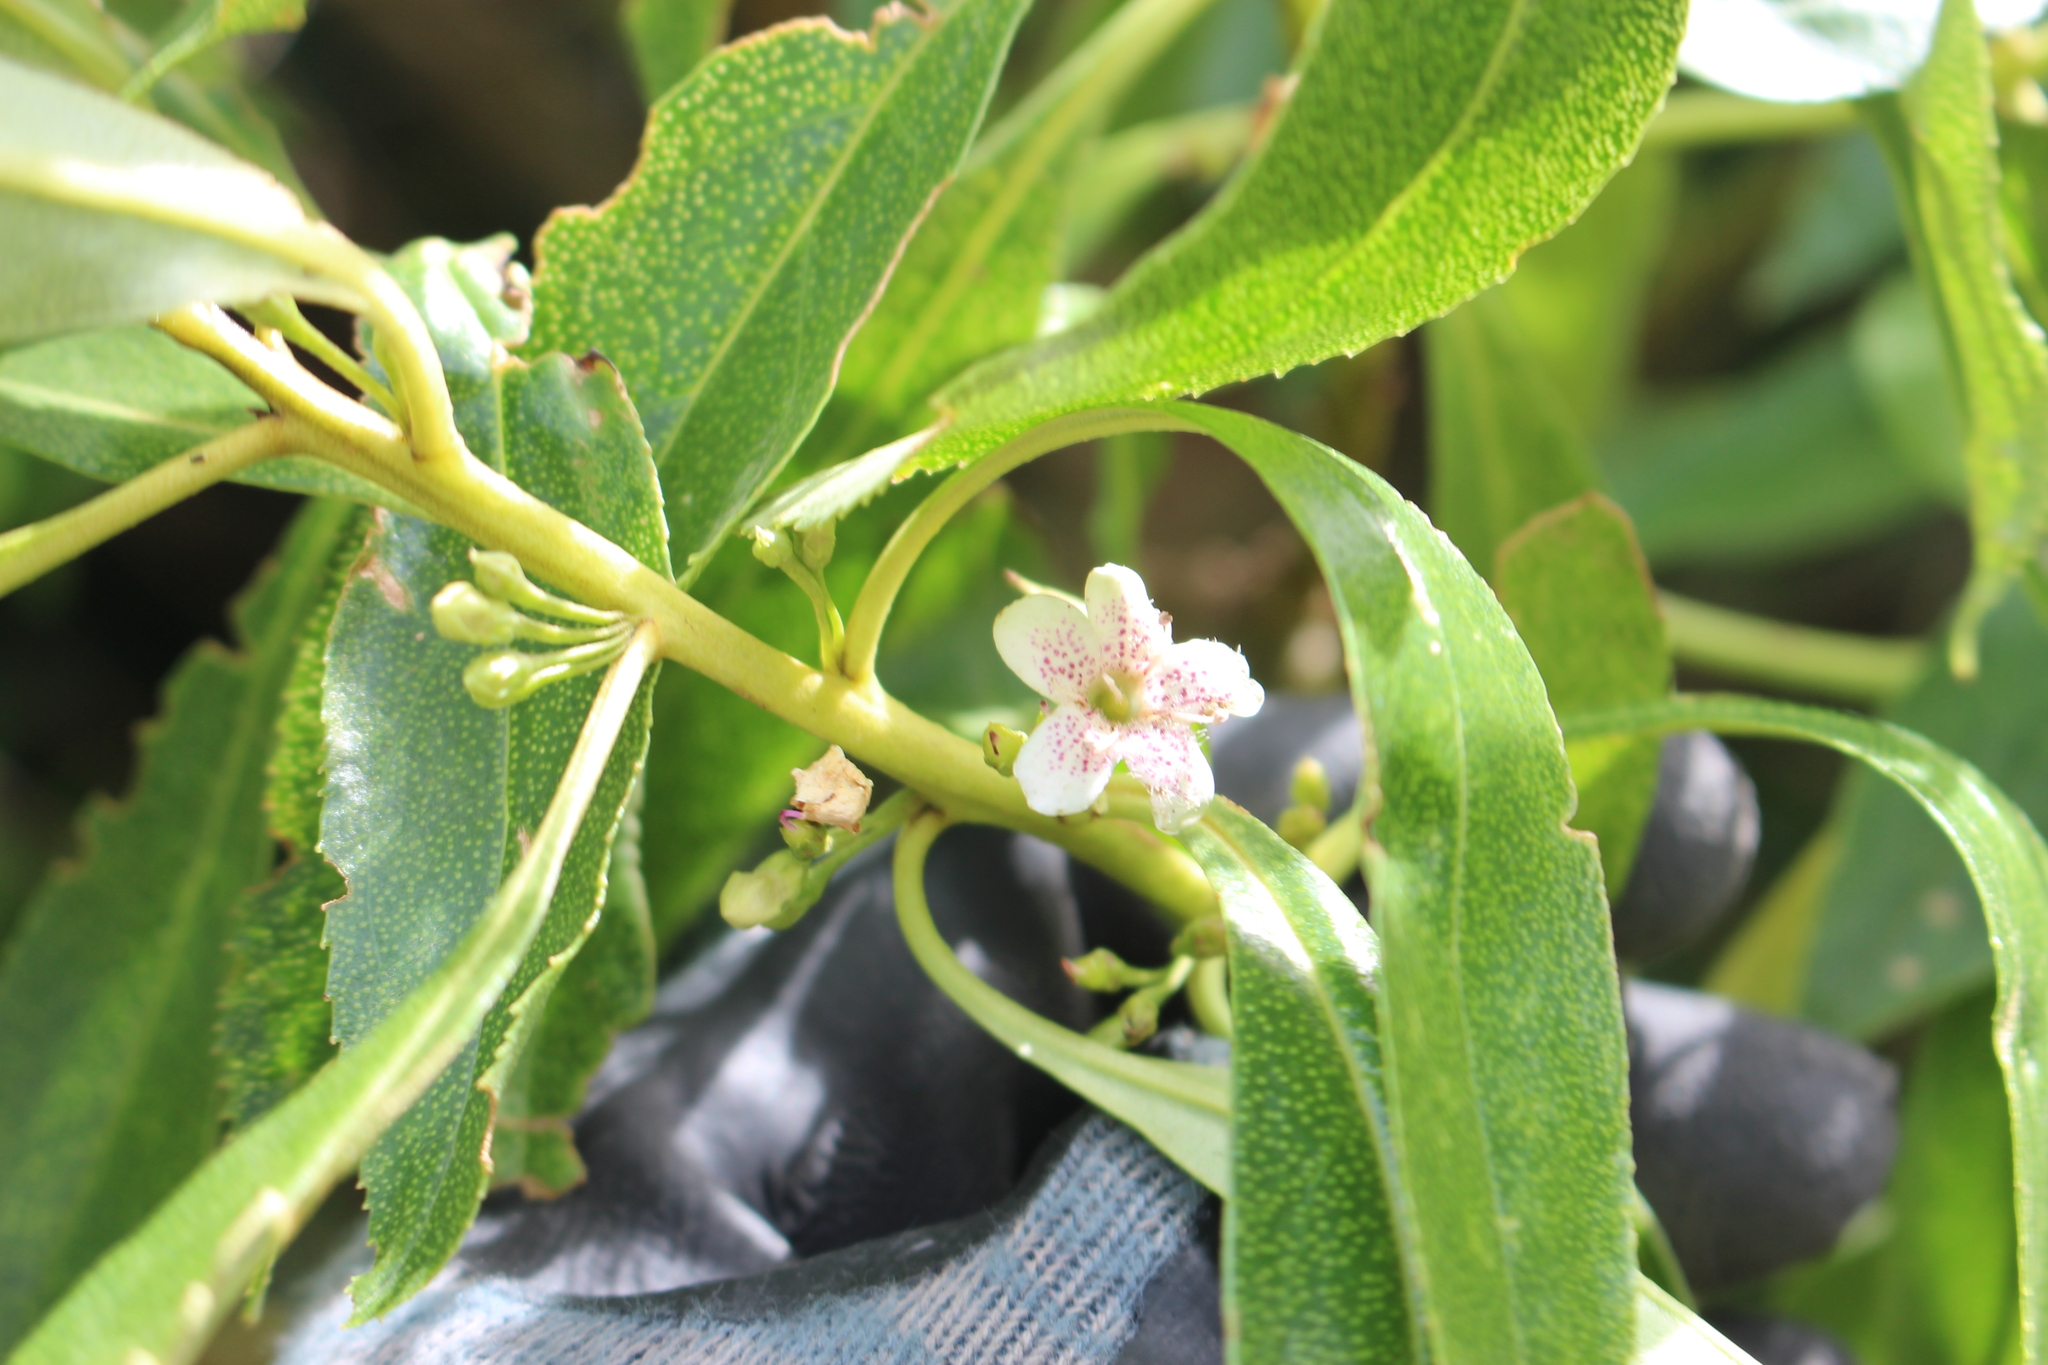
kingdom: Plantae
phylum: Tracheophyta
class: Magnoliopsida
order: Lamiales
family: Scrophulariaceae
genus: Myoporum
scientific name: Myoporum laetum
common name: Ngaio tree
